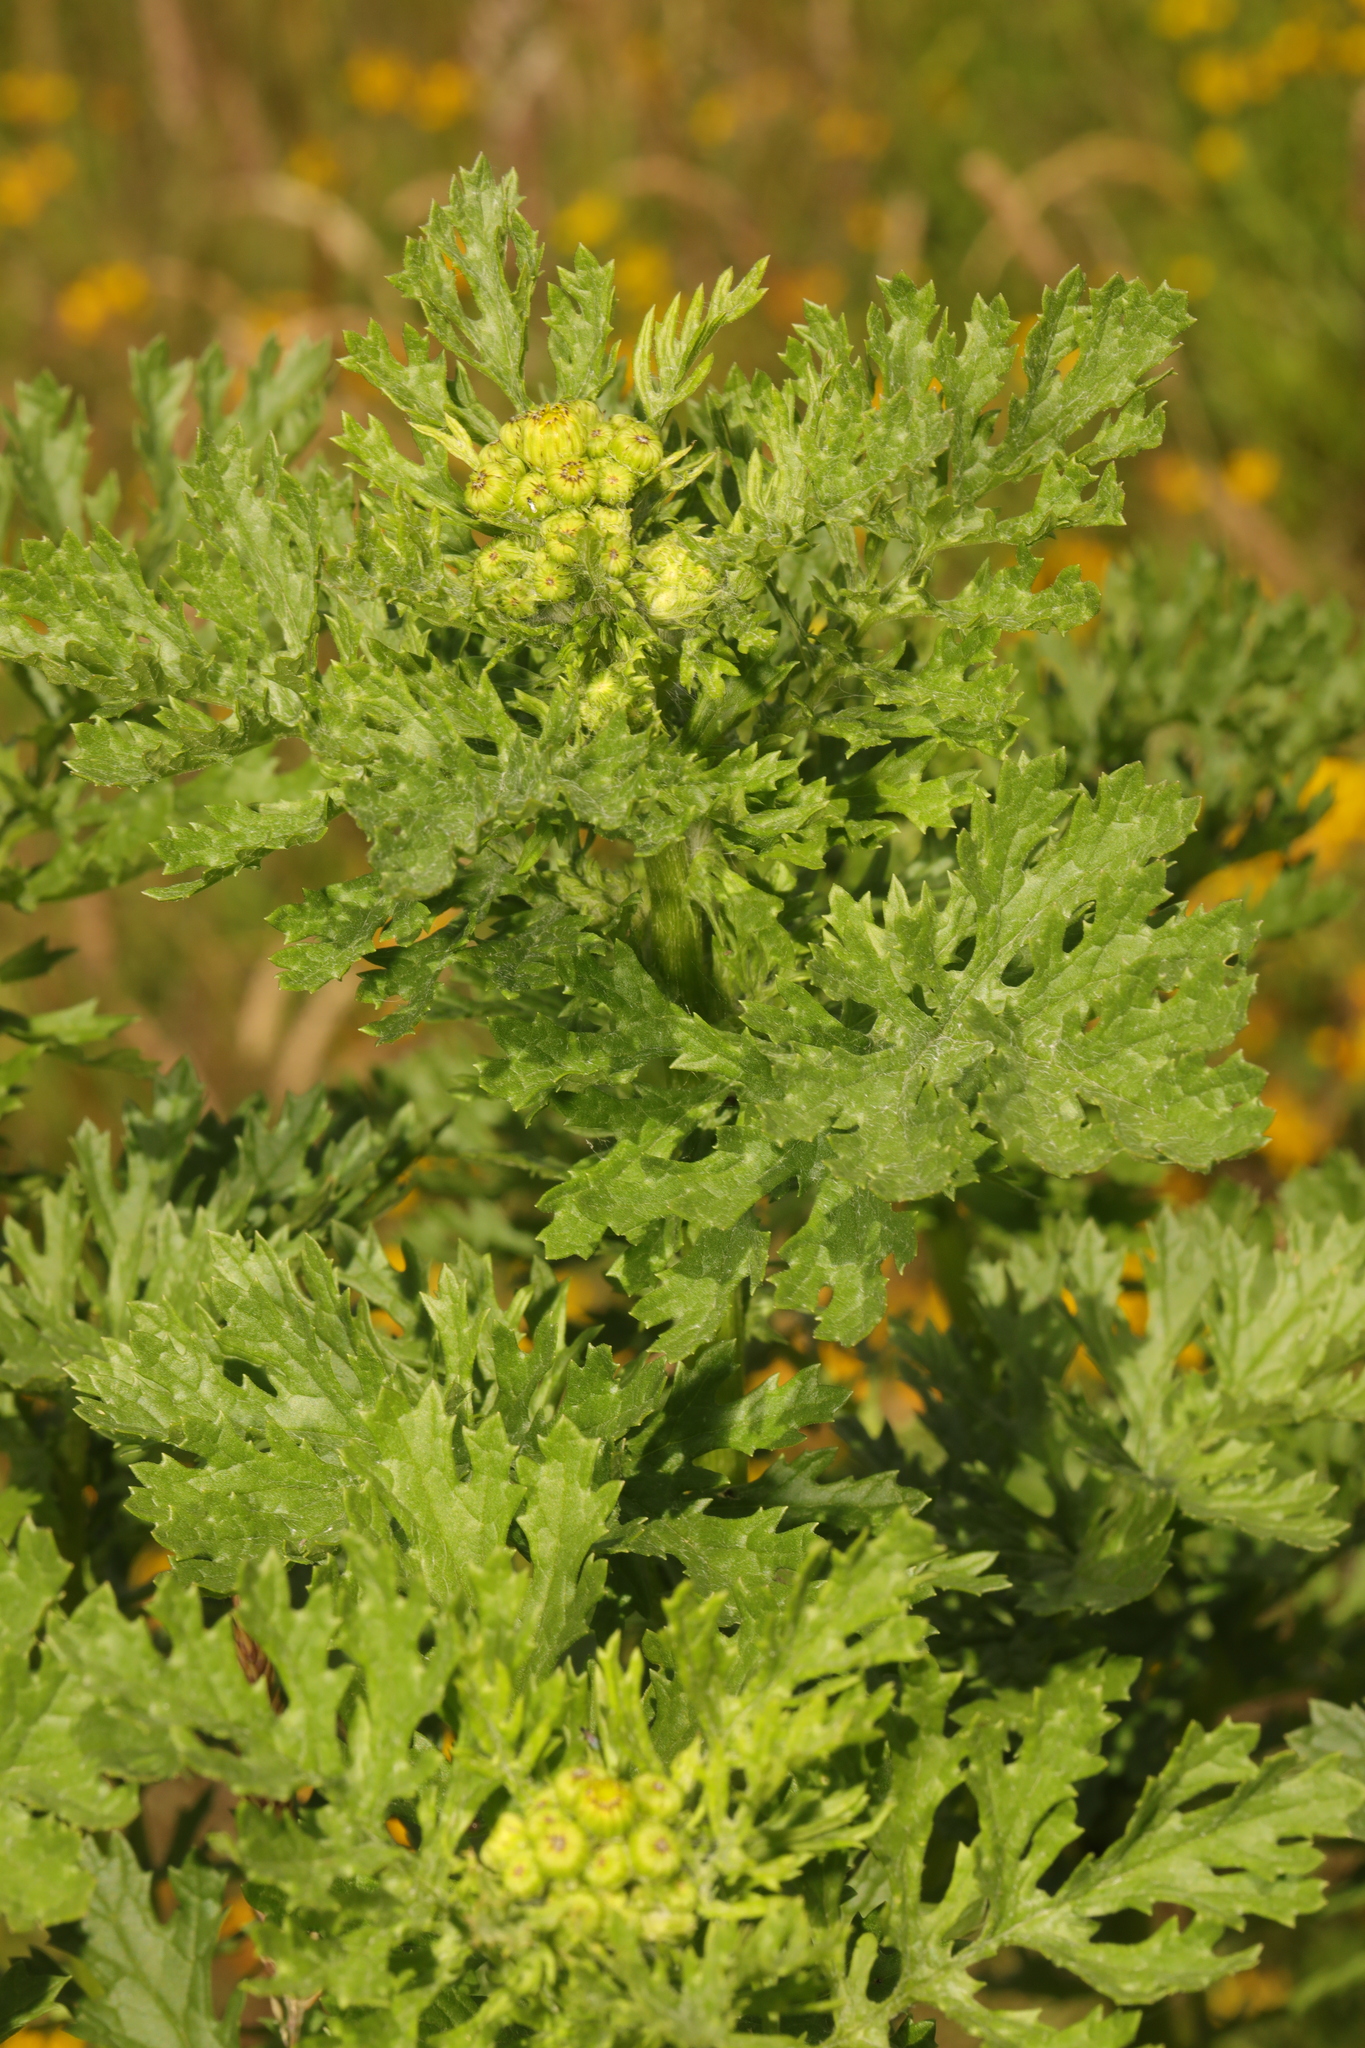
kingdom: Plantae
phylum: Tracheophyta
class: Magnoliopsida
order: Asterales
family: Asteraceae
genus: Jacobaea
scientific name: Jacobaea vulgaris
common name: Stinking willie
